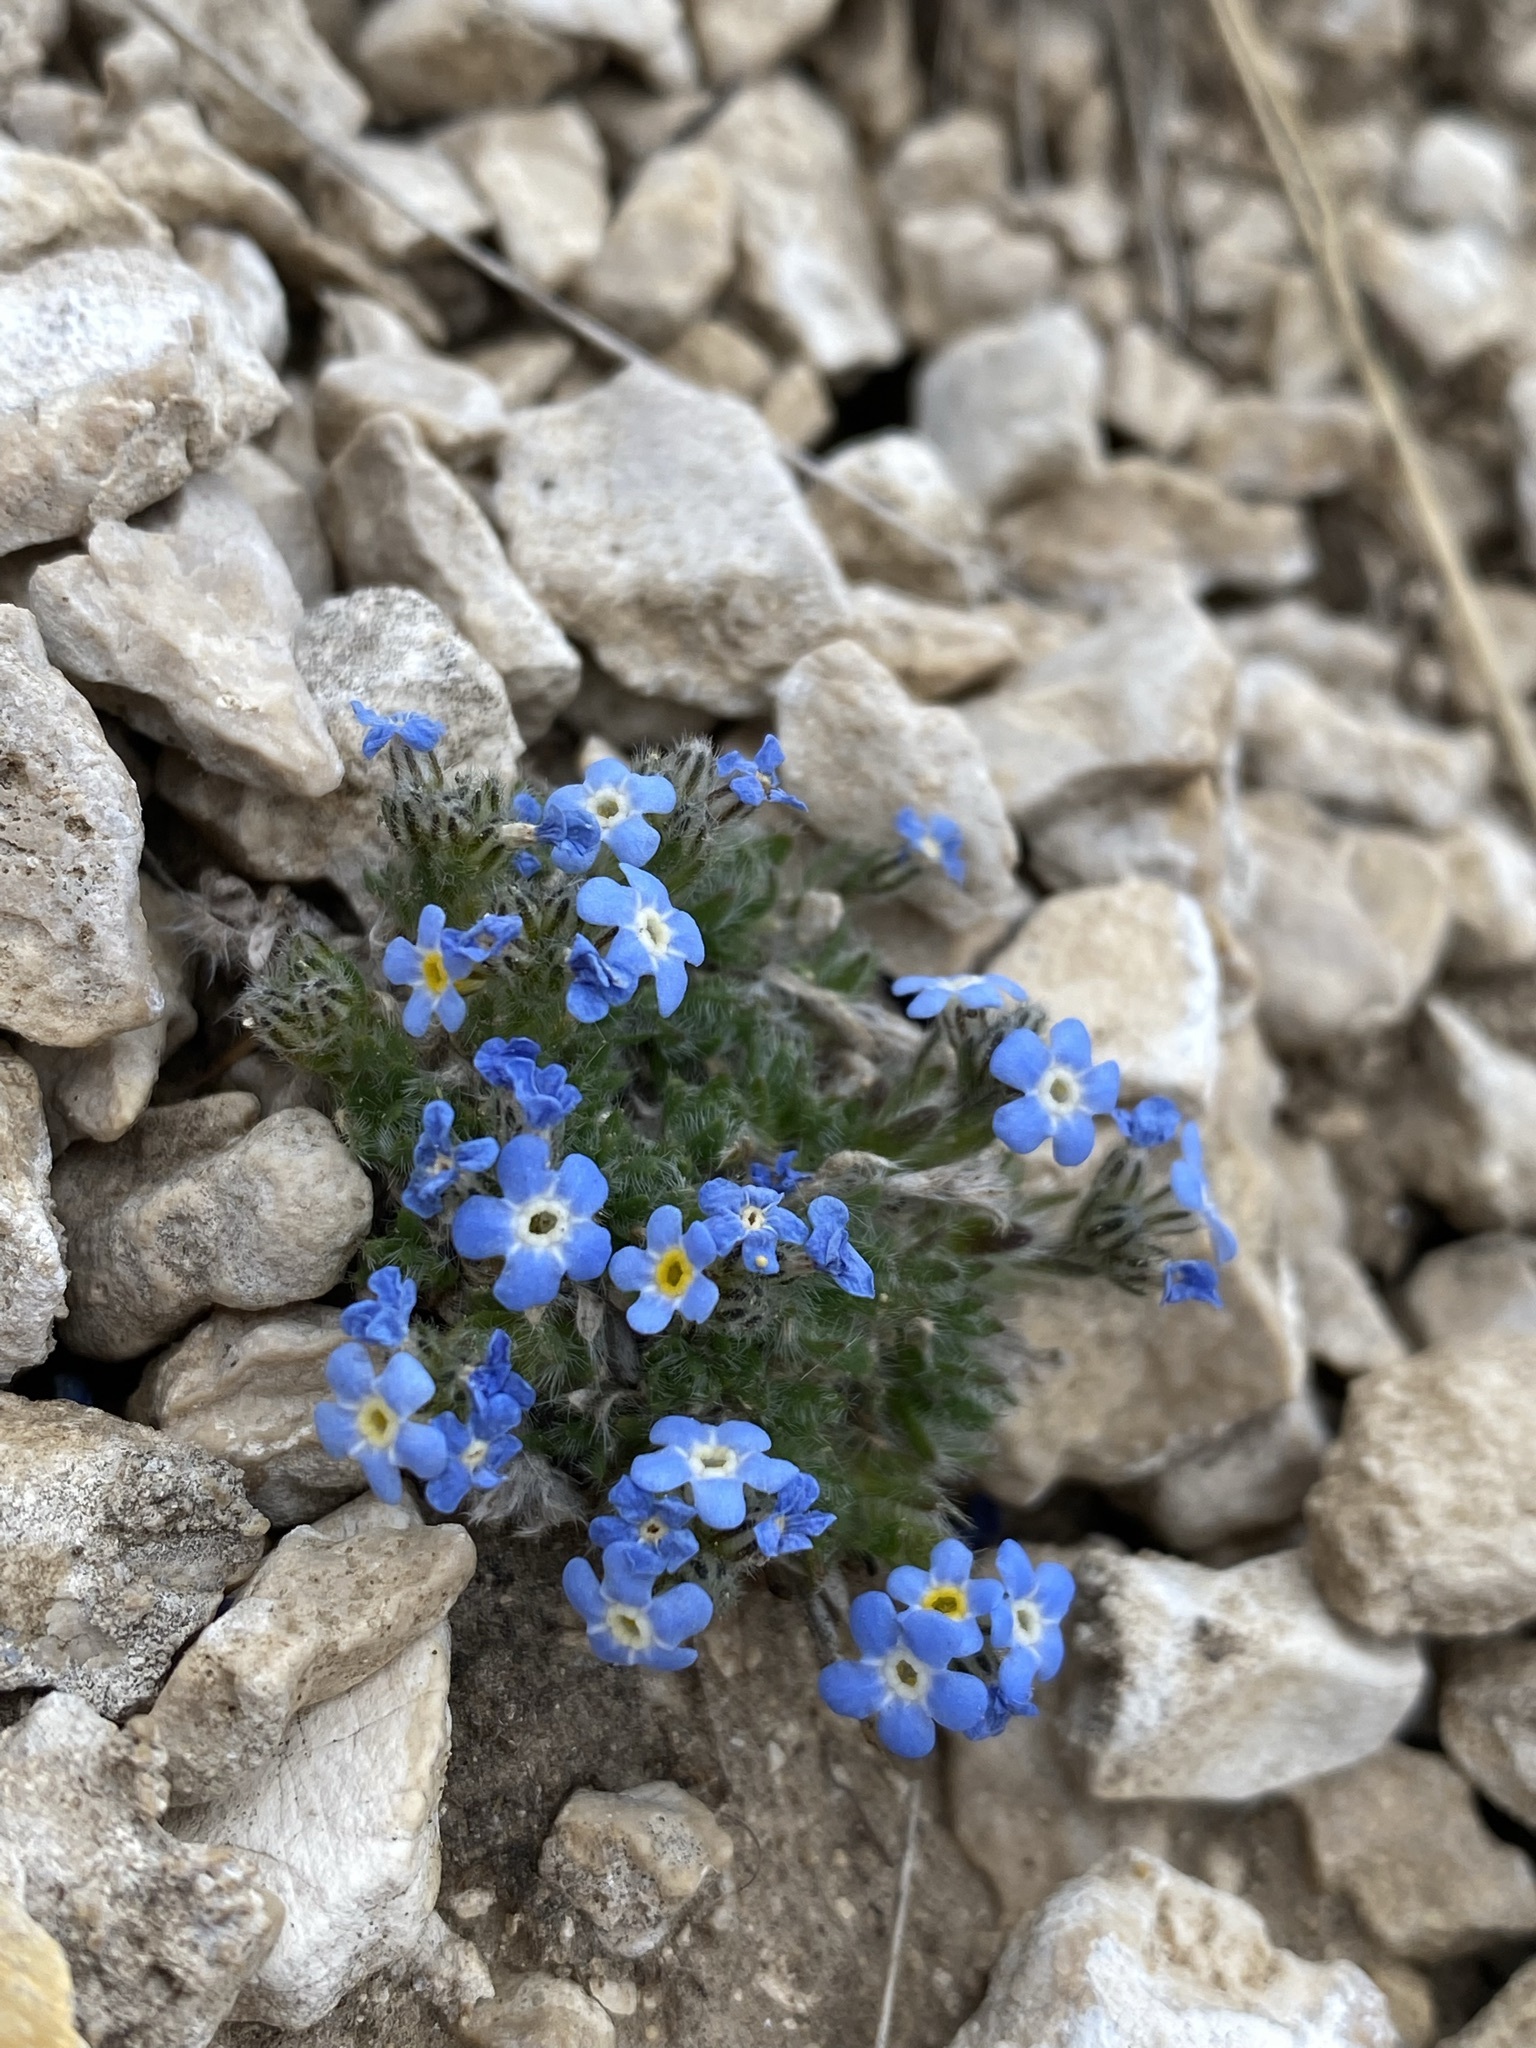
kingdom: Plantae
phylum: Tracheophyta
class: Magnoliopsida
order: Boraginales
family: Boraginaceae
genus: Eritrichium
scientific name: Eritrichium argenteum
